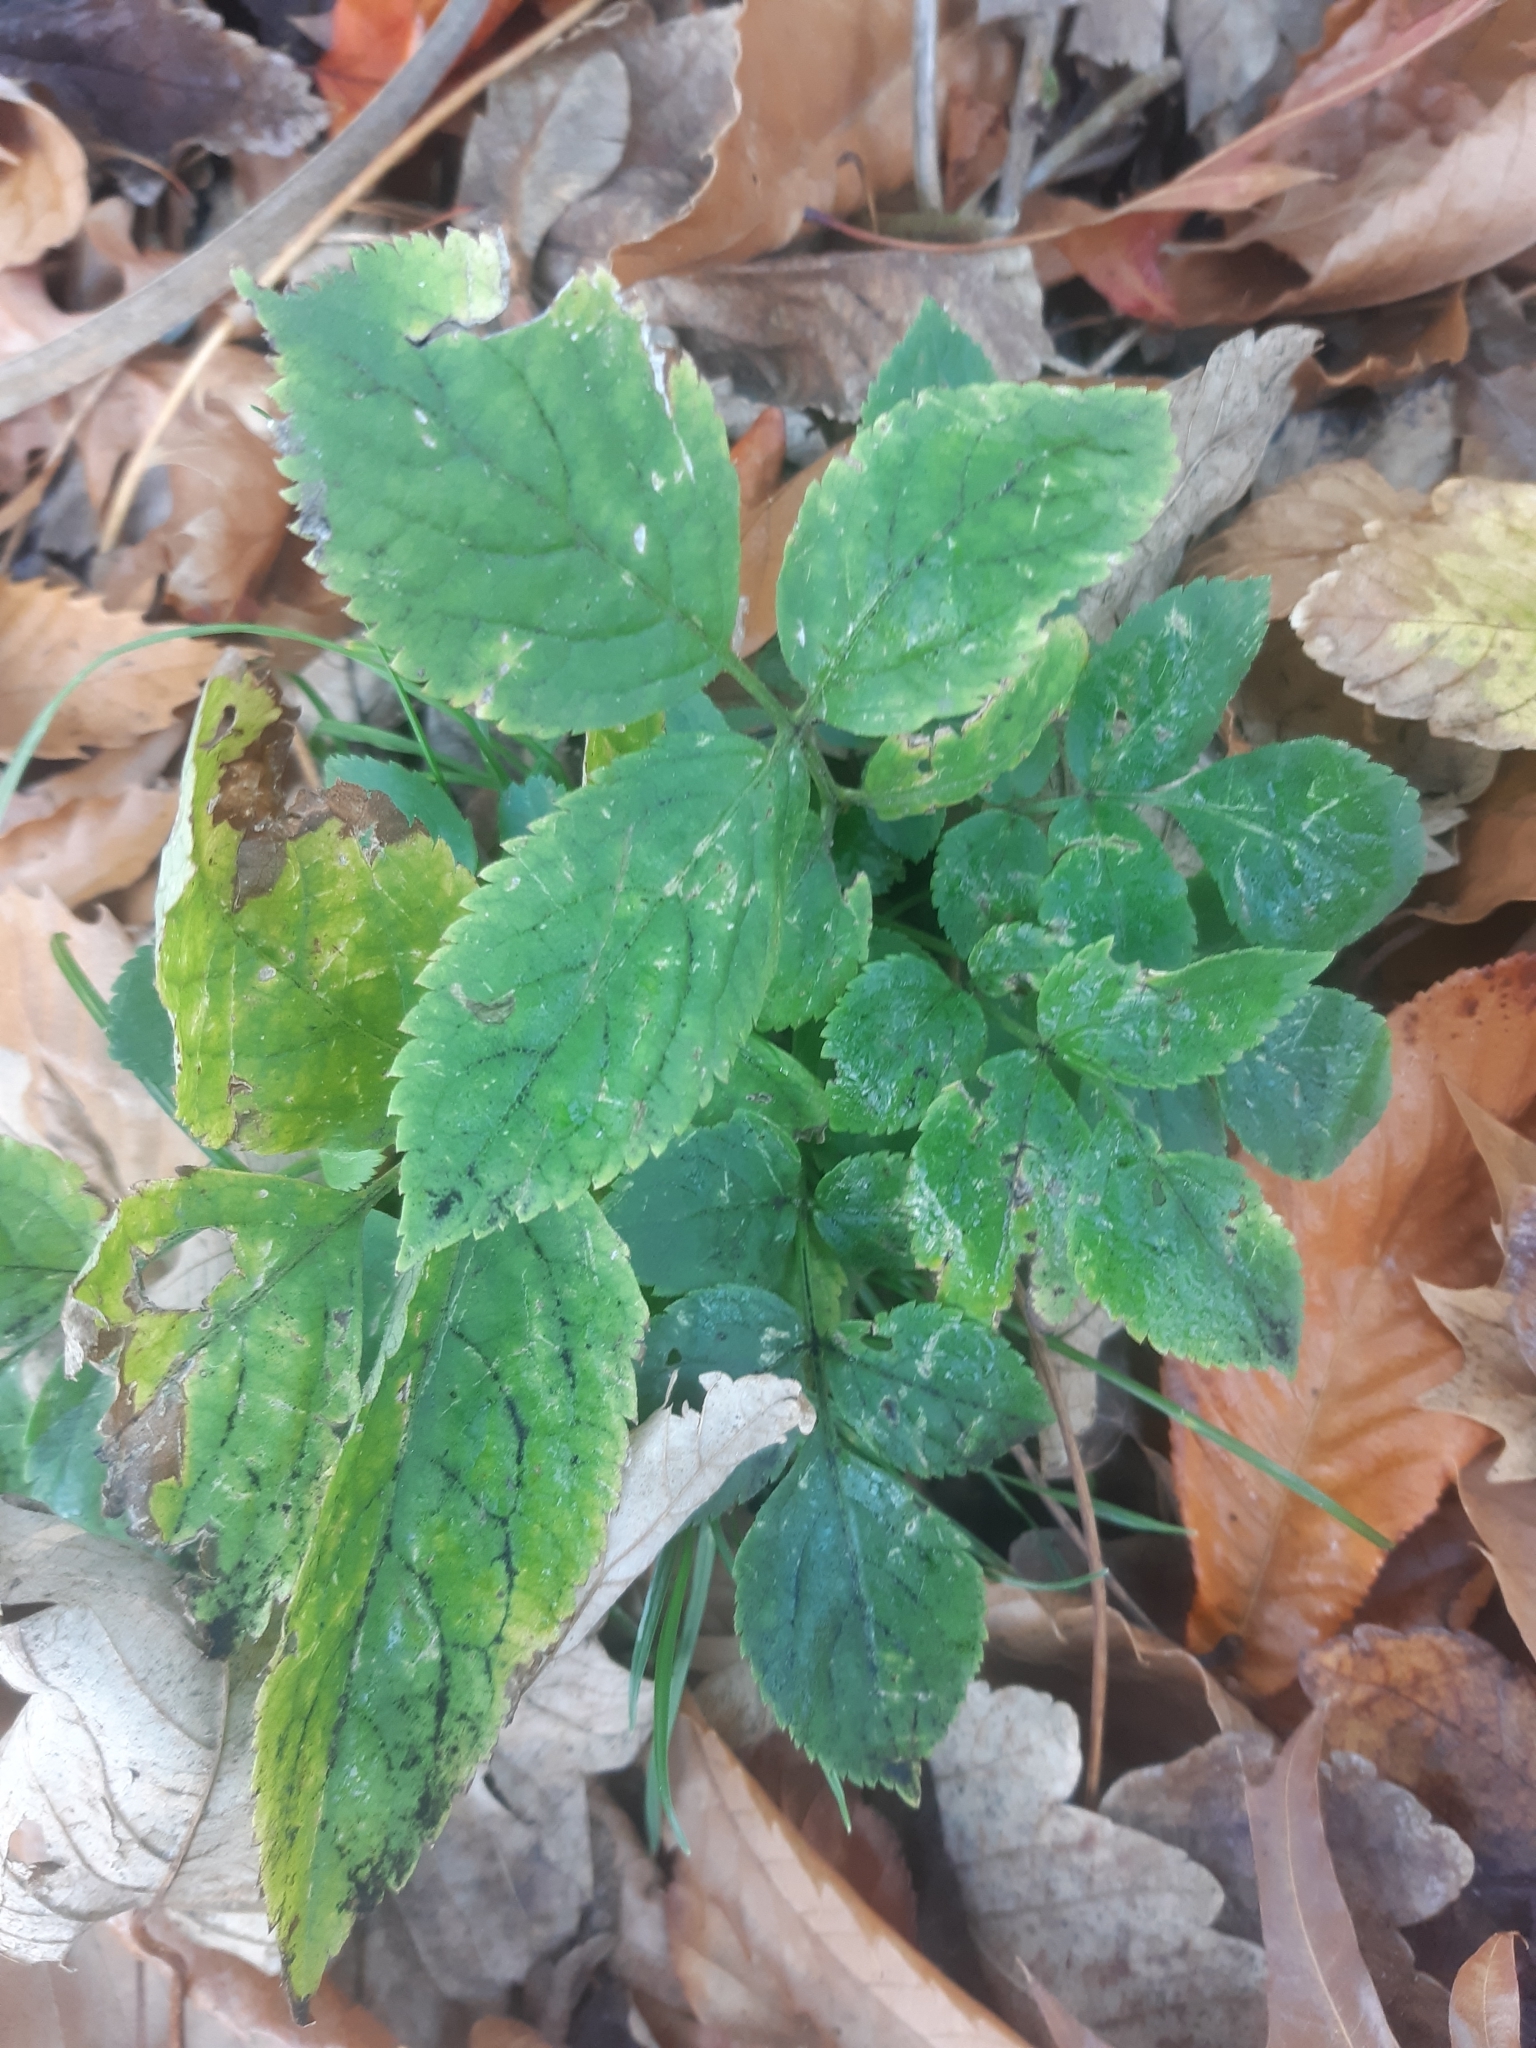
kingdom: Plantae
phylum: Tracheophyta
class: Magnoliopsida
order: Dipsacales
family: Viburnaceae
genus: Sambucus
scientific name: Sambucus nigra
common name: Elder
